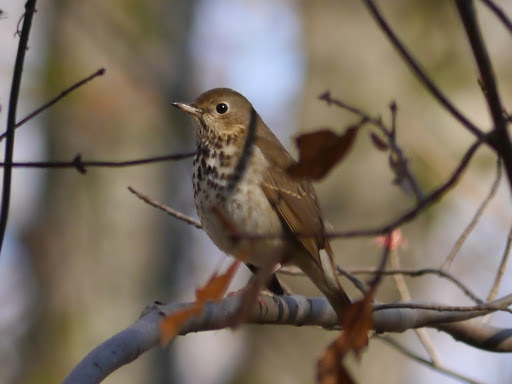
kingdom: Animalia
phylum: Chordata
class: Aves
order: Passeriformes
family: Turdidae
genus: Catharus
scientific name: Catharus guttatus
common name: Hermit thrush
